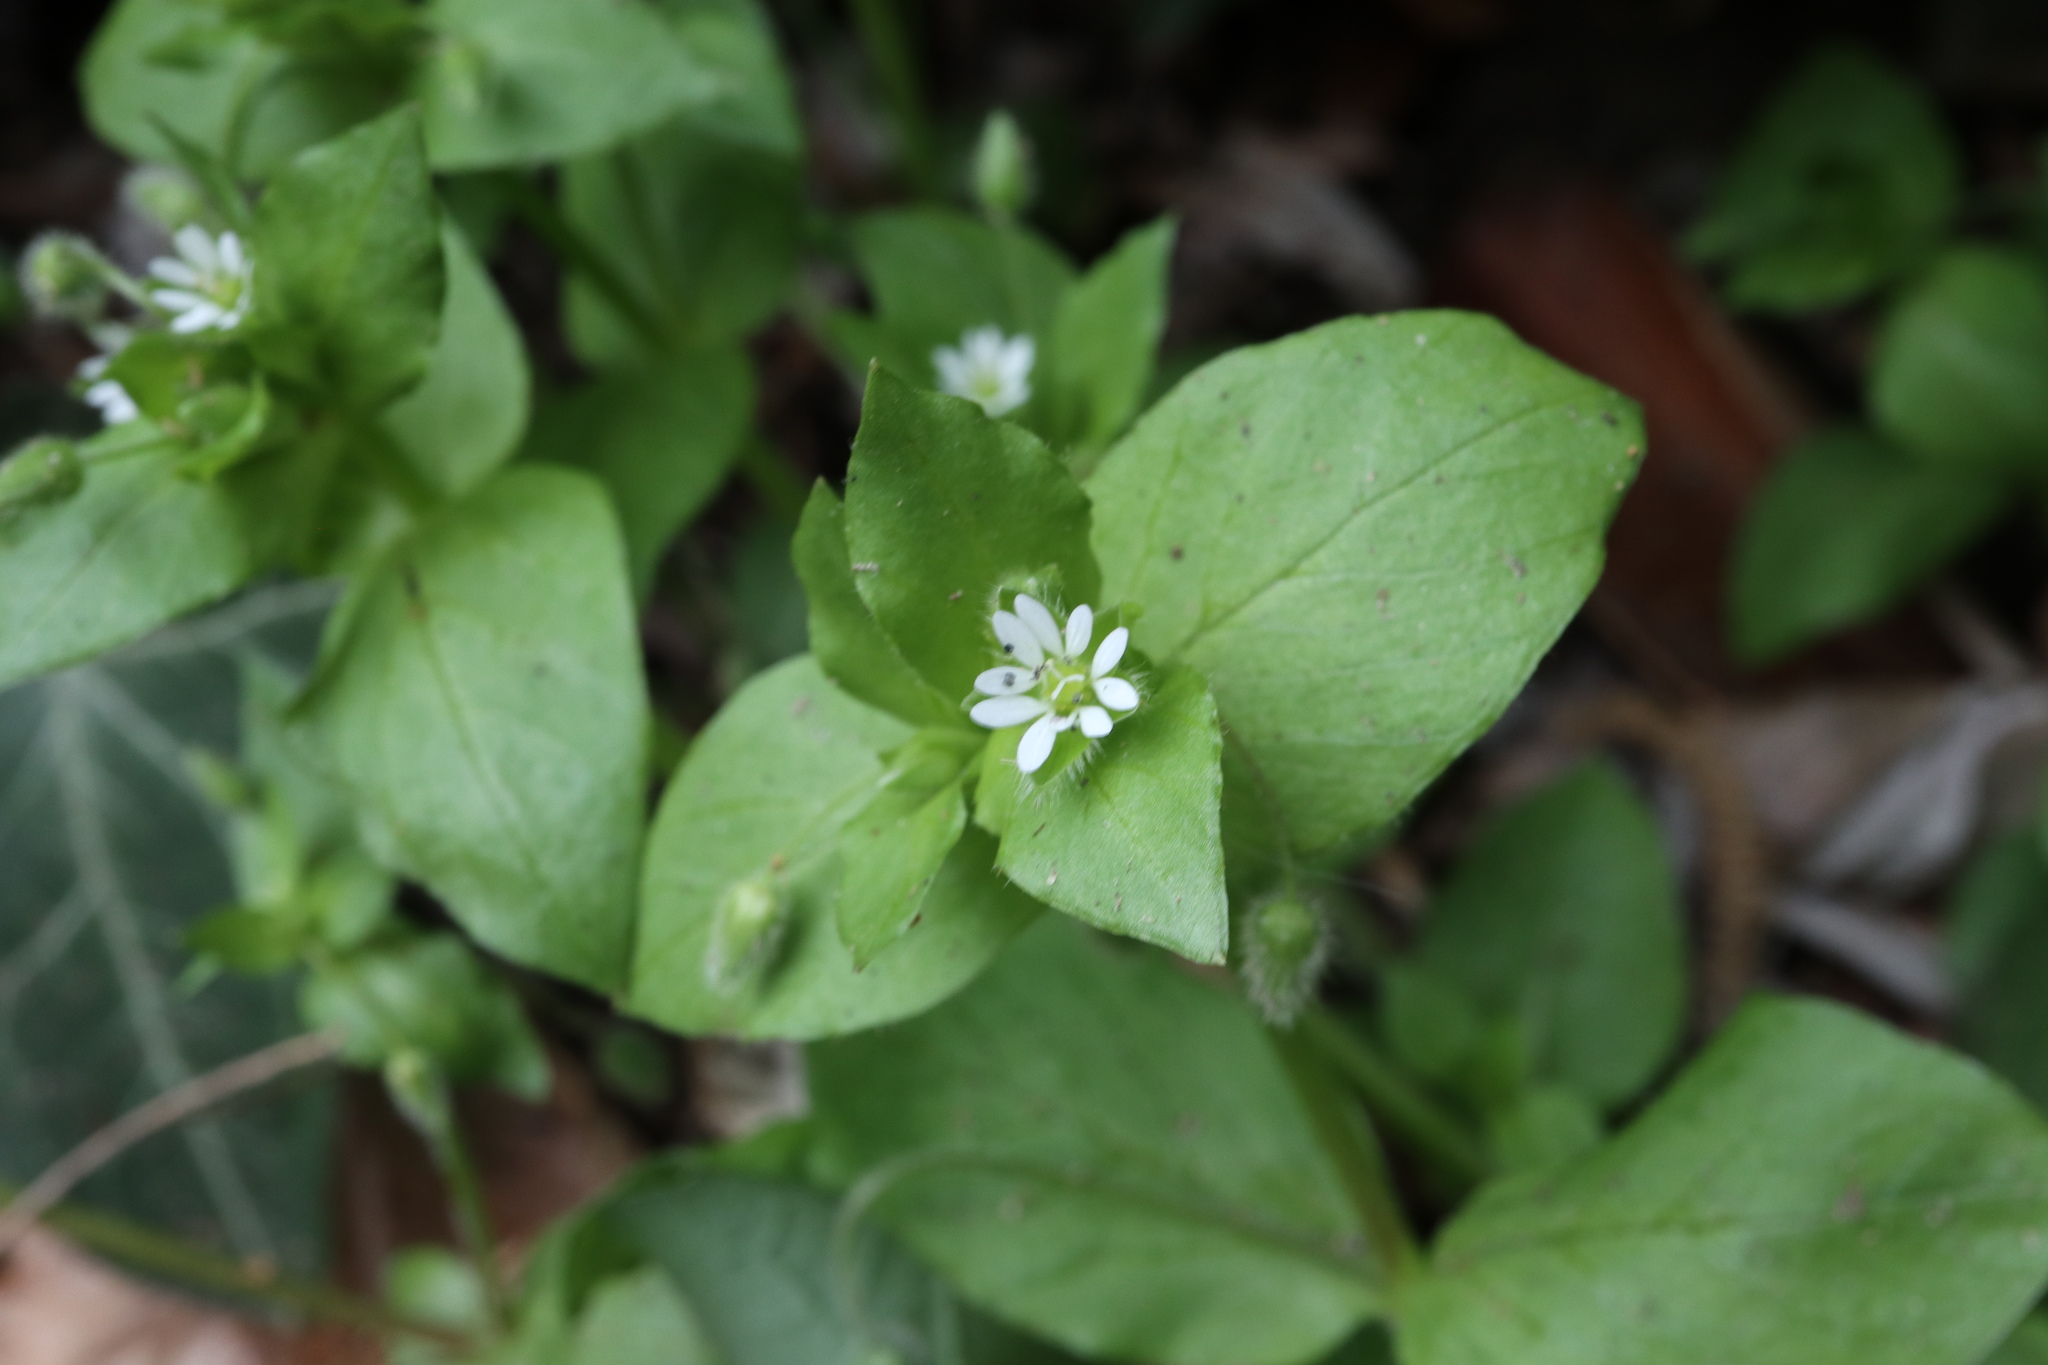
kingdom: Plantae
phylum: Tracheophyta
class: Magnoliopsida
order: Caryophyllales
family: Caryophyllaceae
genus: Stellaria
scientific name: Stellaria media
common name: Common chickweed
